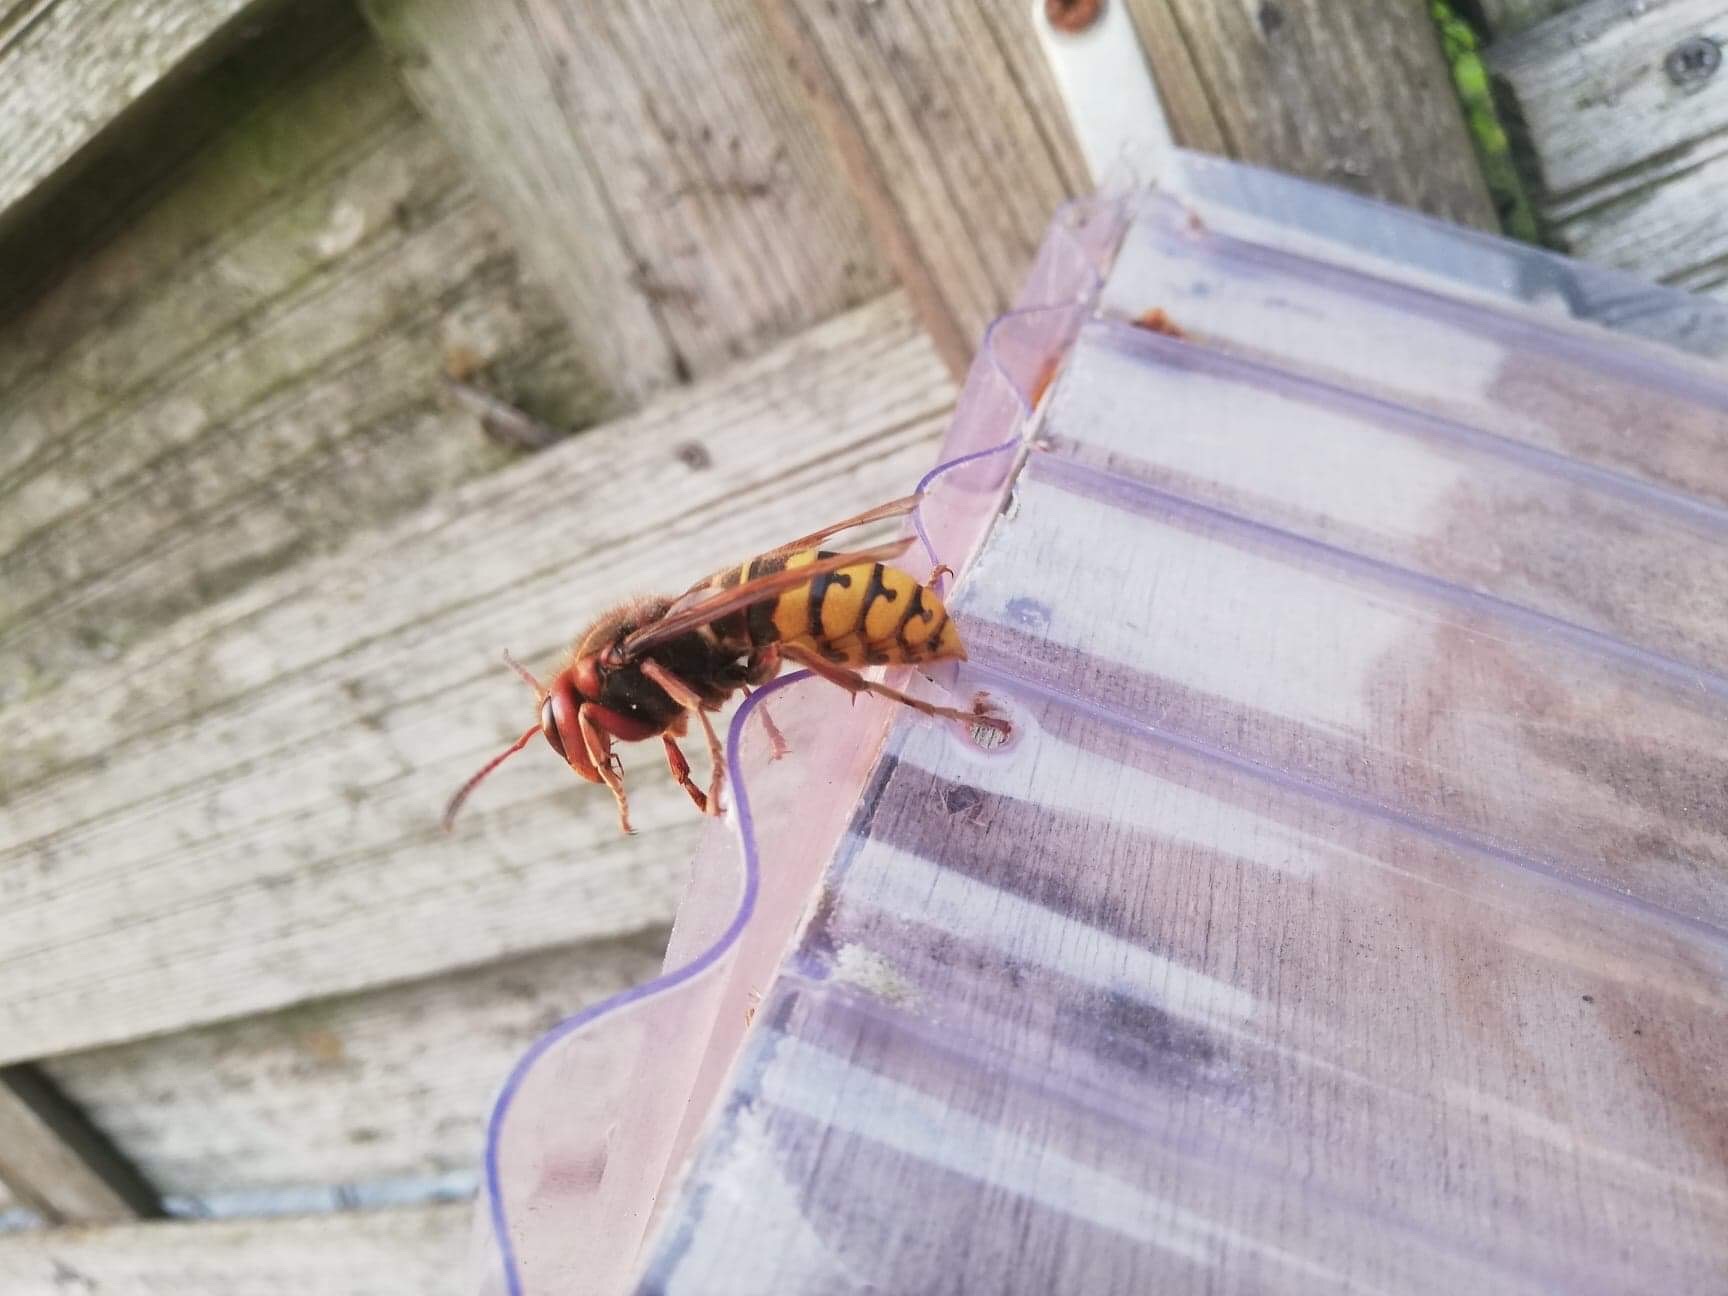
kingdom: Animalia
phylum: Arthropoda
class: Insecta
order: Hymenoptera
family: Vespidae
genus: Vespa
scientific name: Vespa crabro
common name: Hornet
